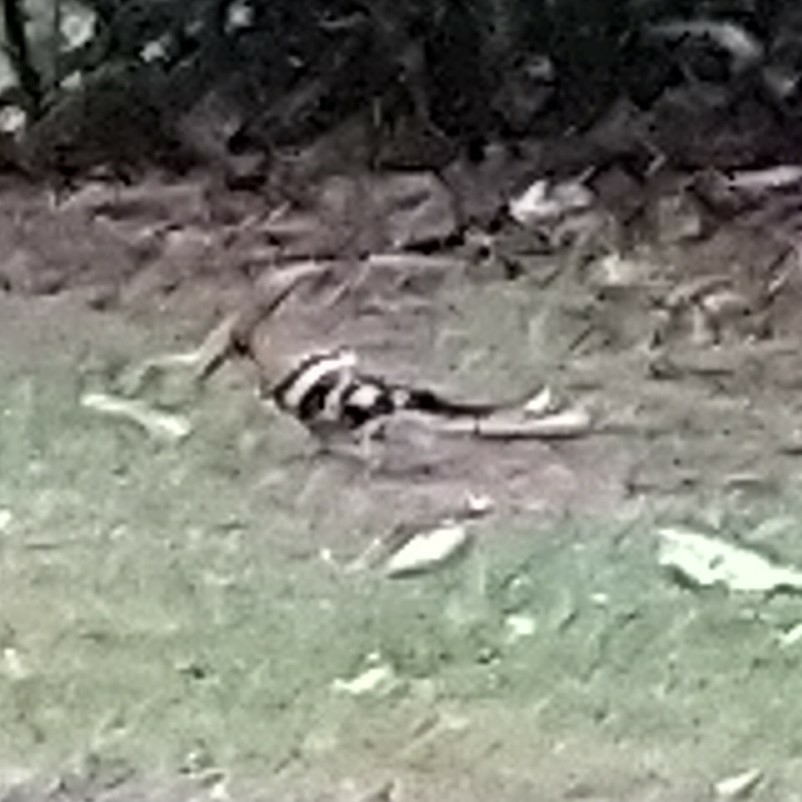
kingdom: Animalia
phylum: Chordata
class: Aves
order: Bucerotiformes
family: Upupidae
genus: Upupa
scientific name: Upupa africana
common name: African hoopoe
